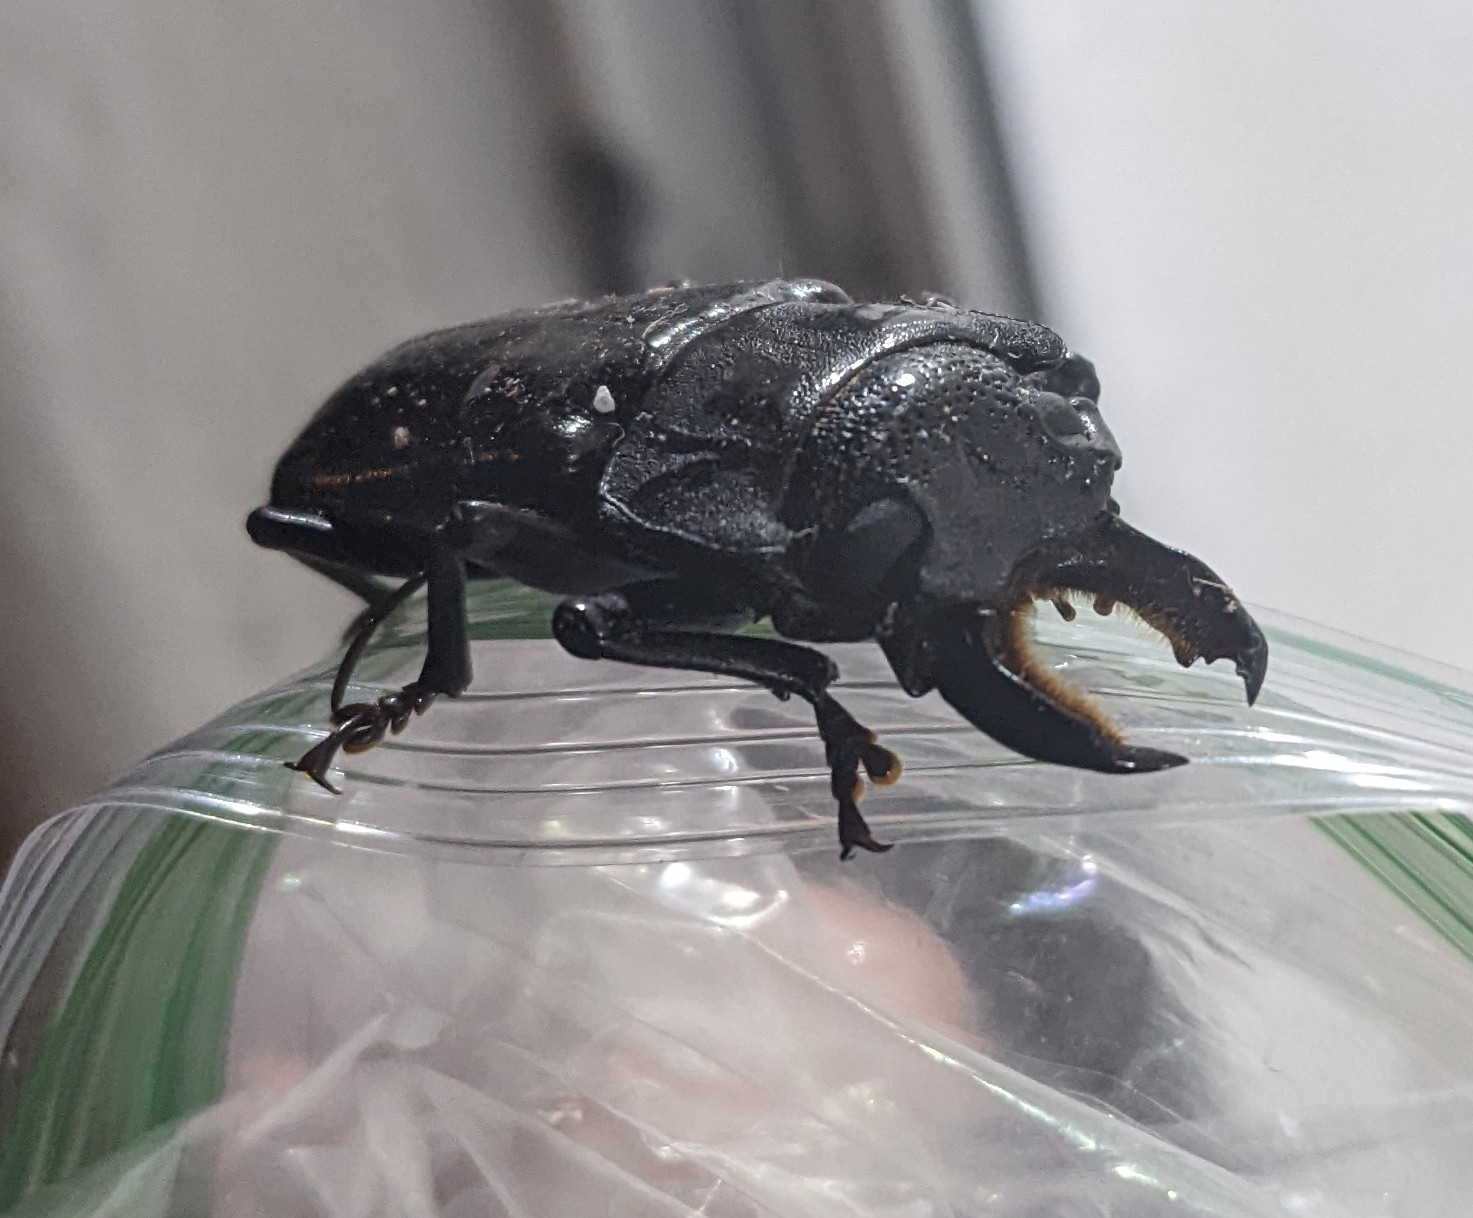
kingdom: Animalia
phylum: Arthropoda
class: Insecta
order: Coleoptera
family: Cerambycidae
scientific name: Cerambycidae
